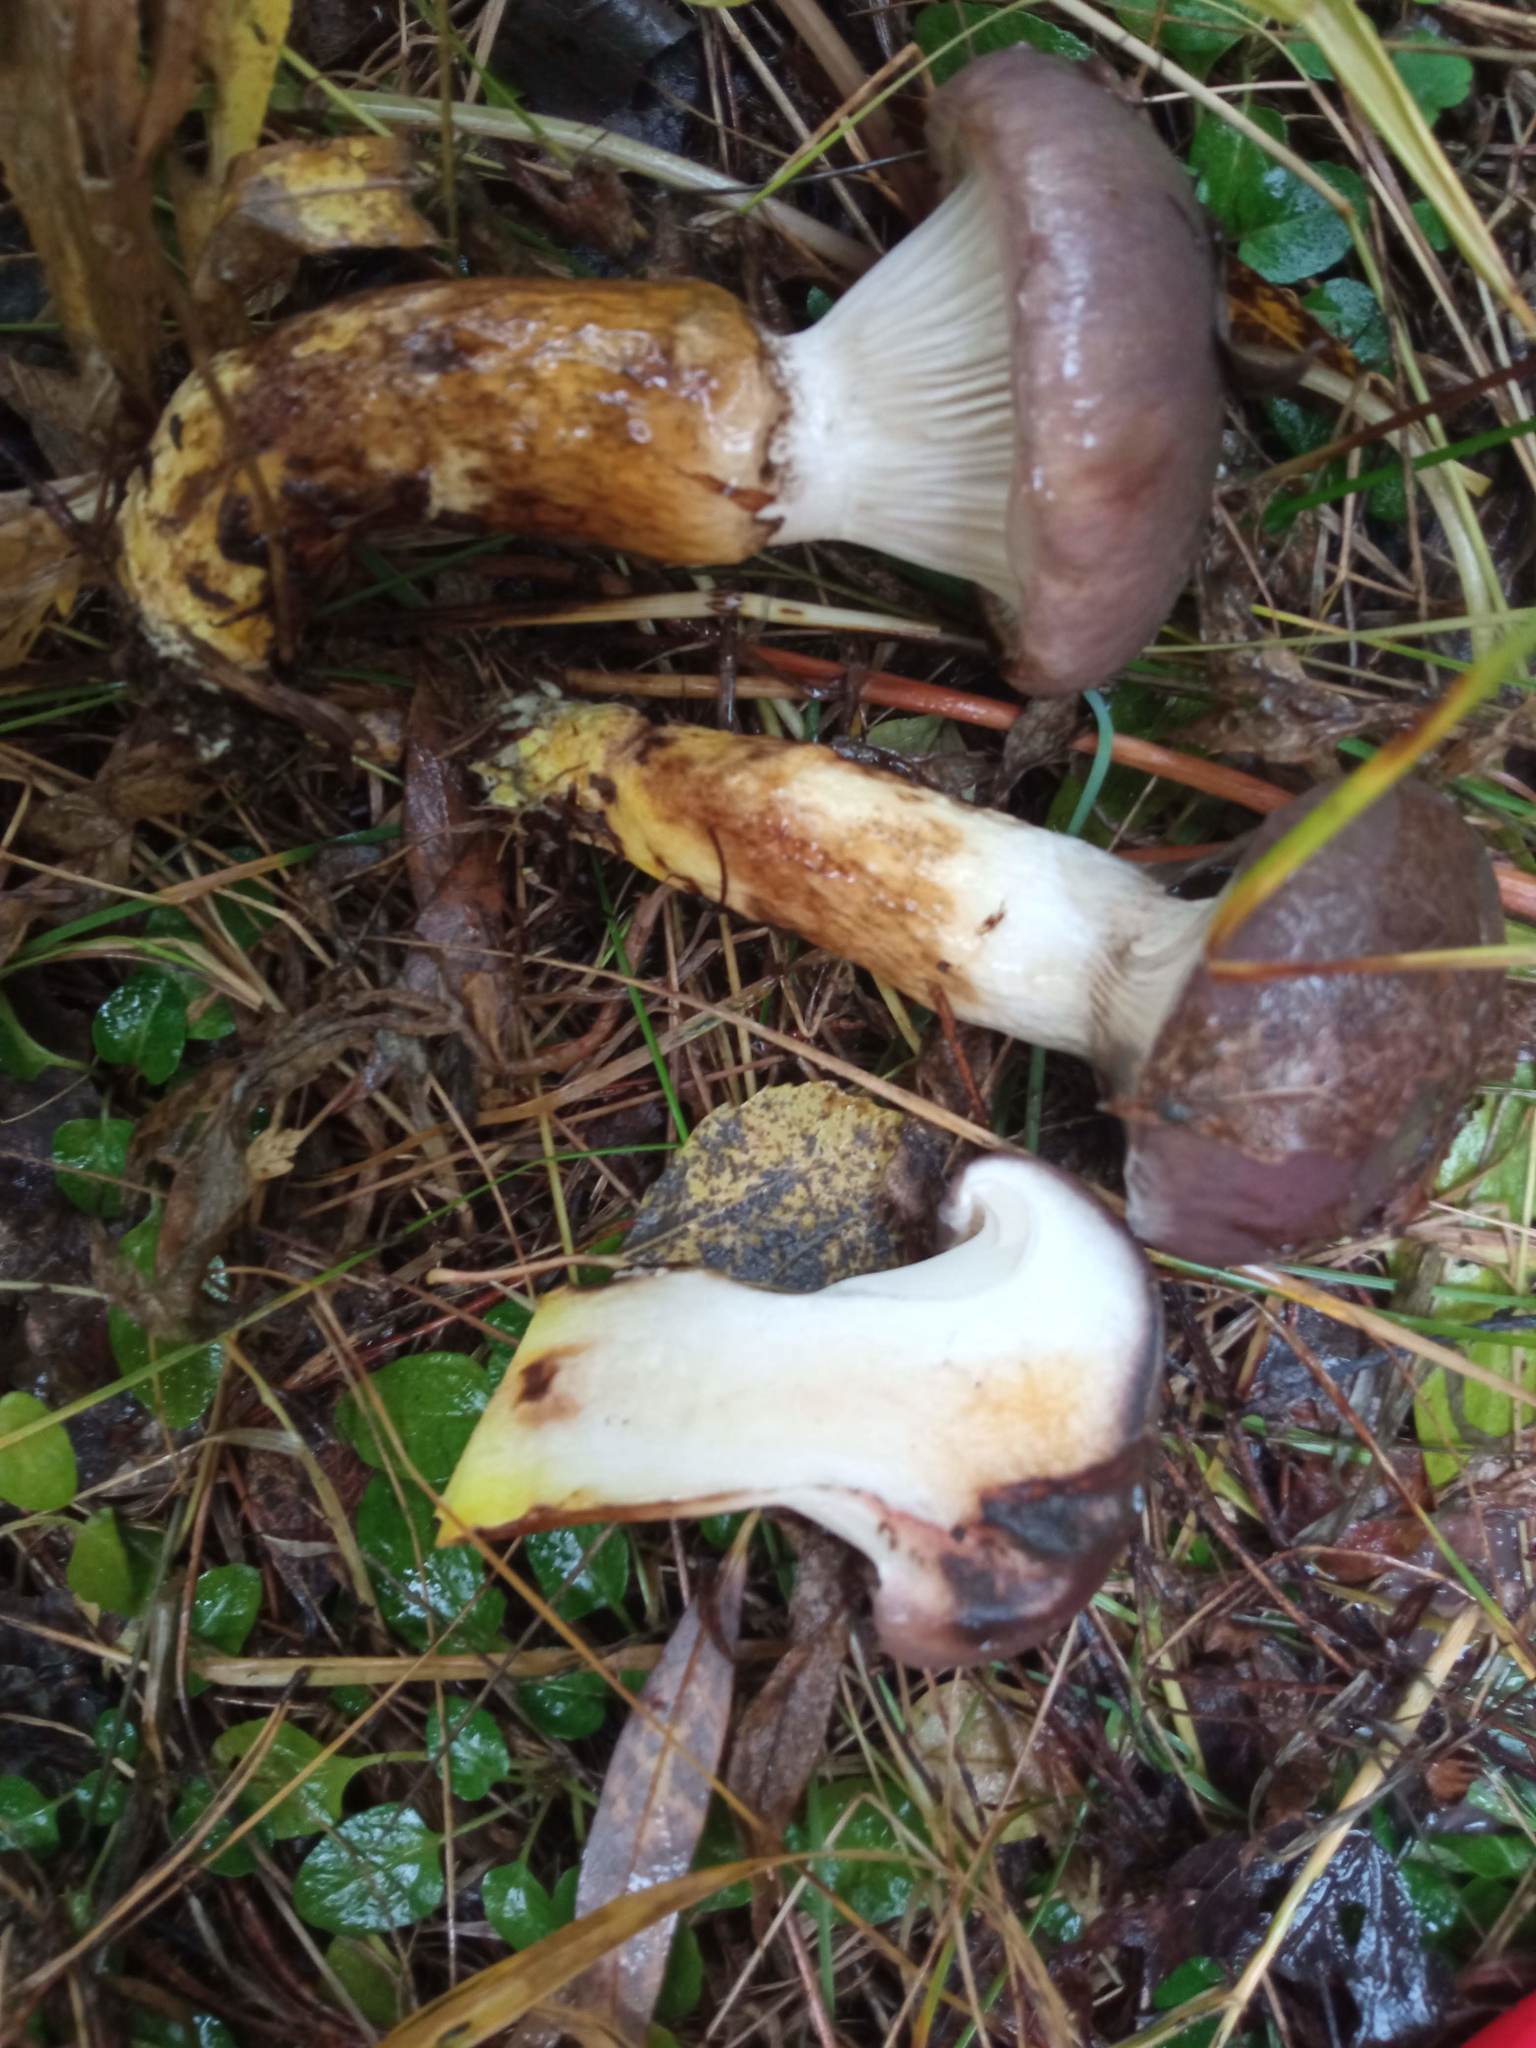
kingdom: Fungi
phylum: Basidiomycota
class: Agaricomycetes
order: Boletales
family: Gomphidiaceae
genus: Gomphidius
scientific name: Gomphidius glutinosus
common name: Slimy spike
